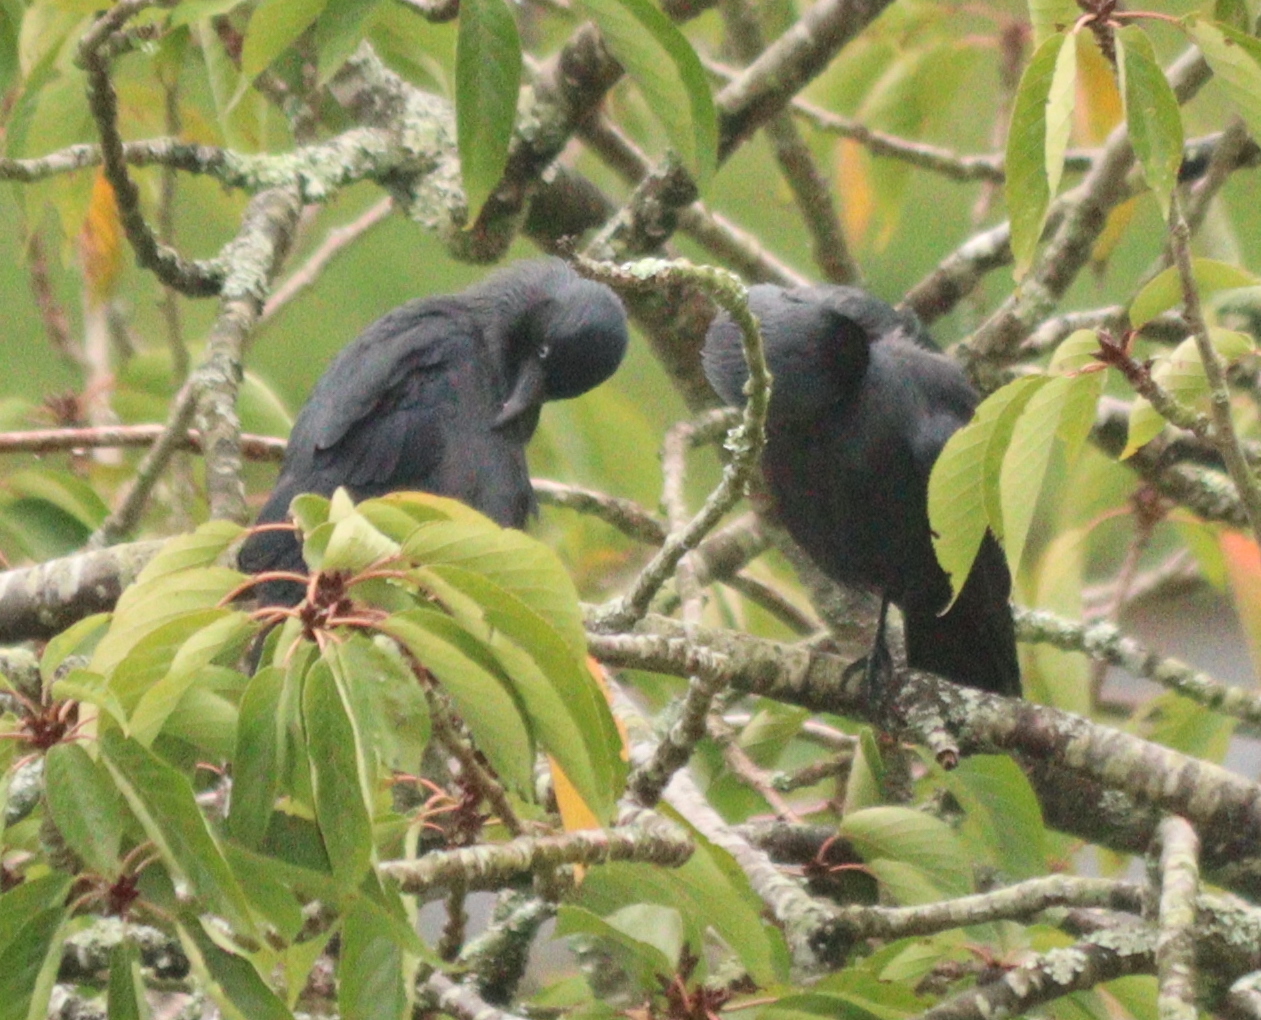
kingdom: Animalia
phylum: Chordata
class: Aves
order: Passeriformes
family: Corvidae
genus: Coloeus
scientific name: Coloeus monedula
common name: Western jackdaw
